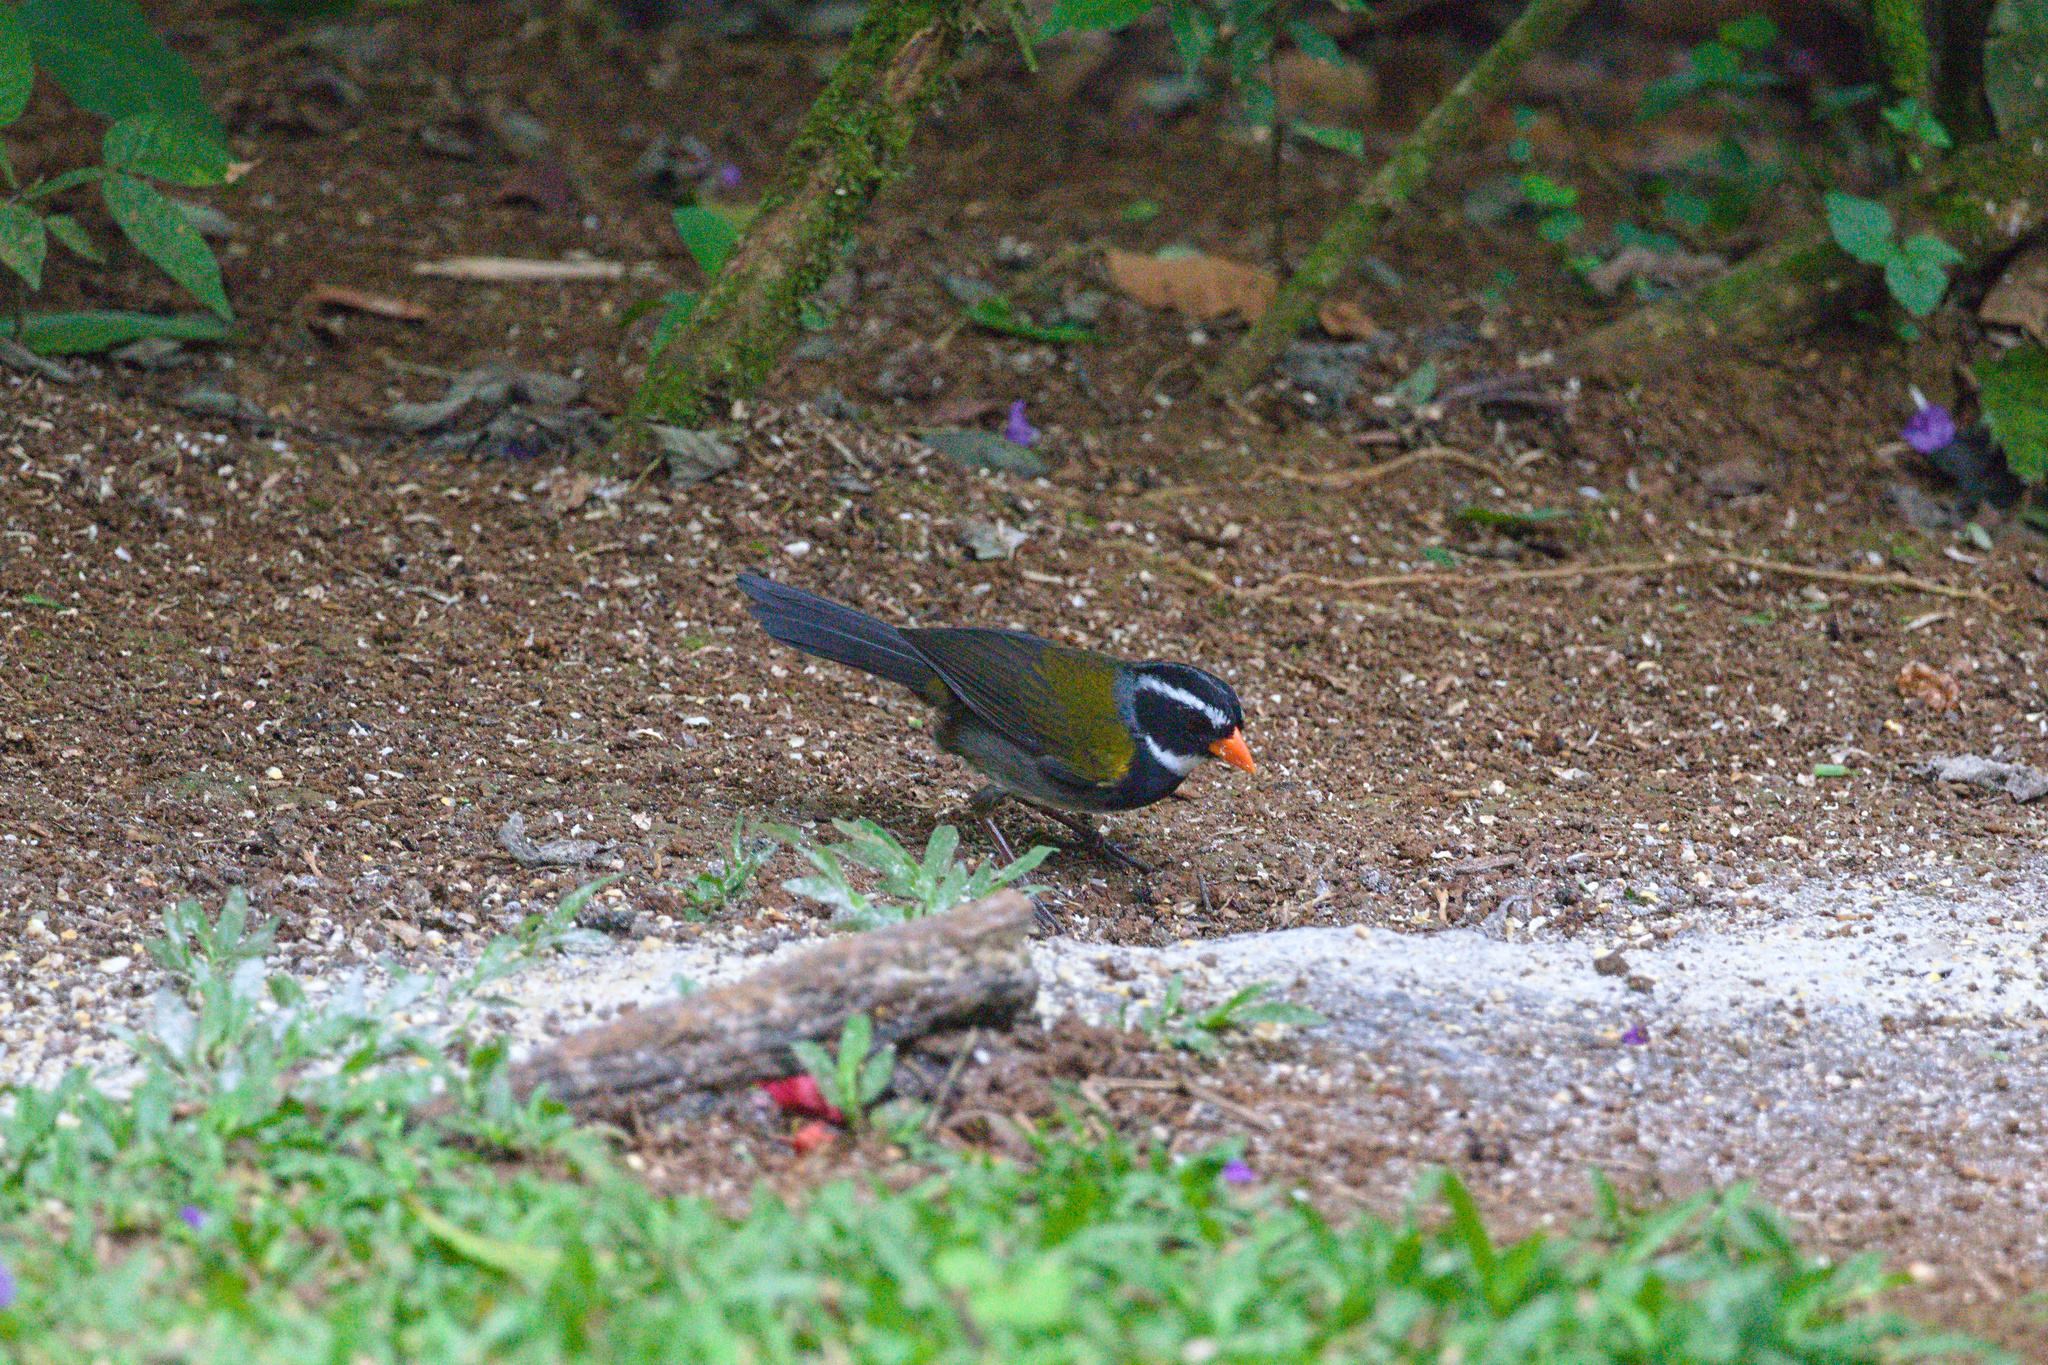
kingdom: Animalia
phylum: Chordata
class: Aves
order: Passeriformes
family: Passerellidae
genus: Arremon
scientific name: Arremon aurantiirostris
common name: Orange-billed sparrow
